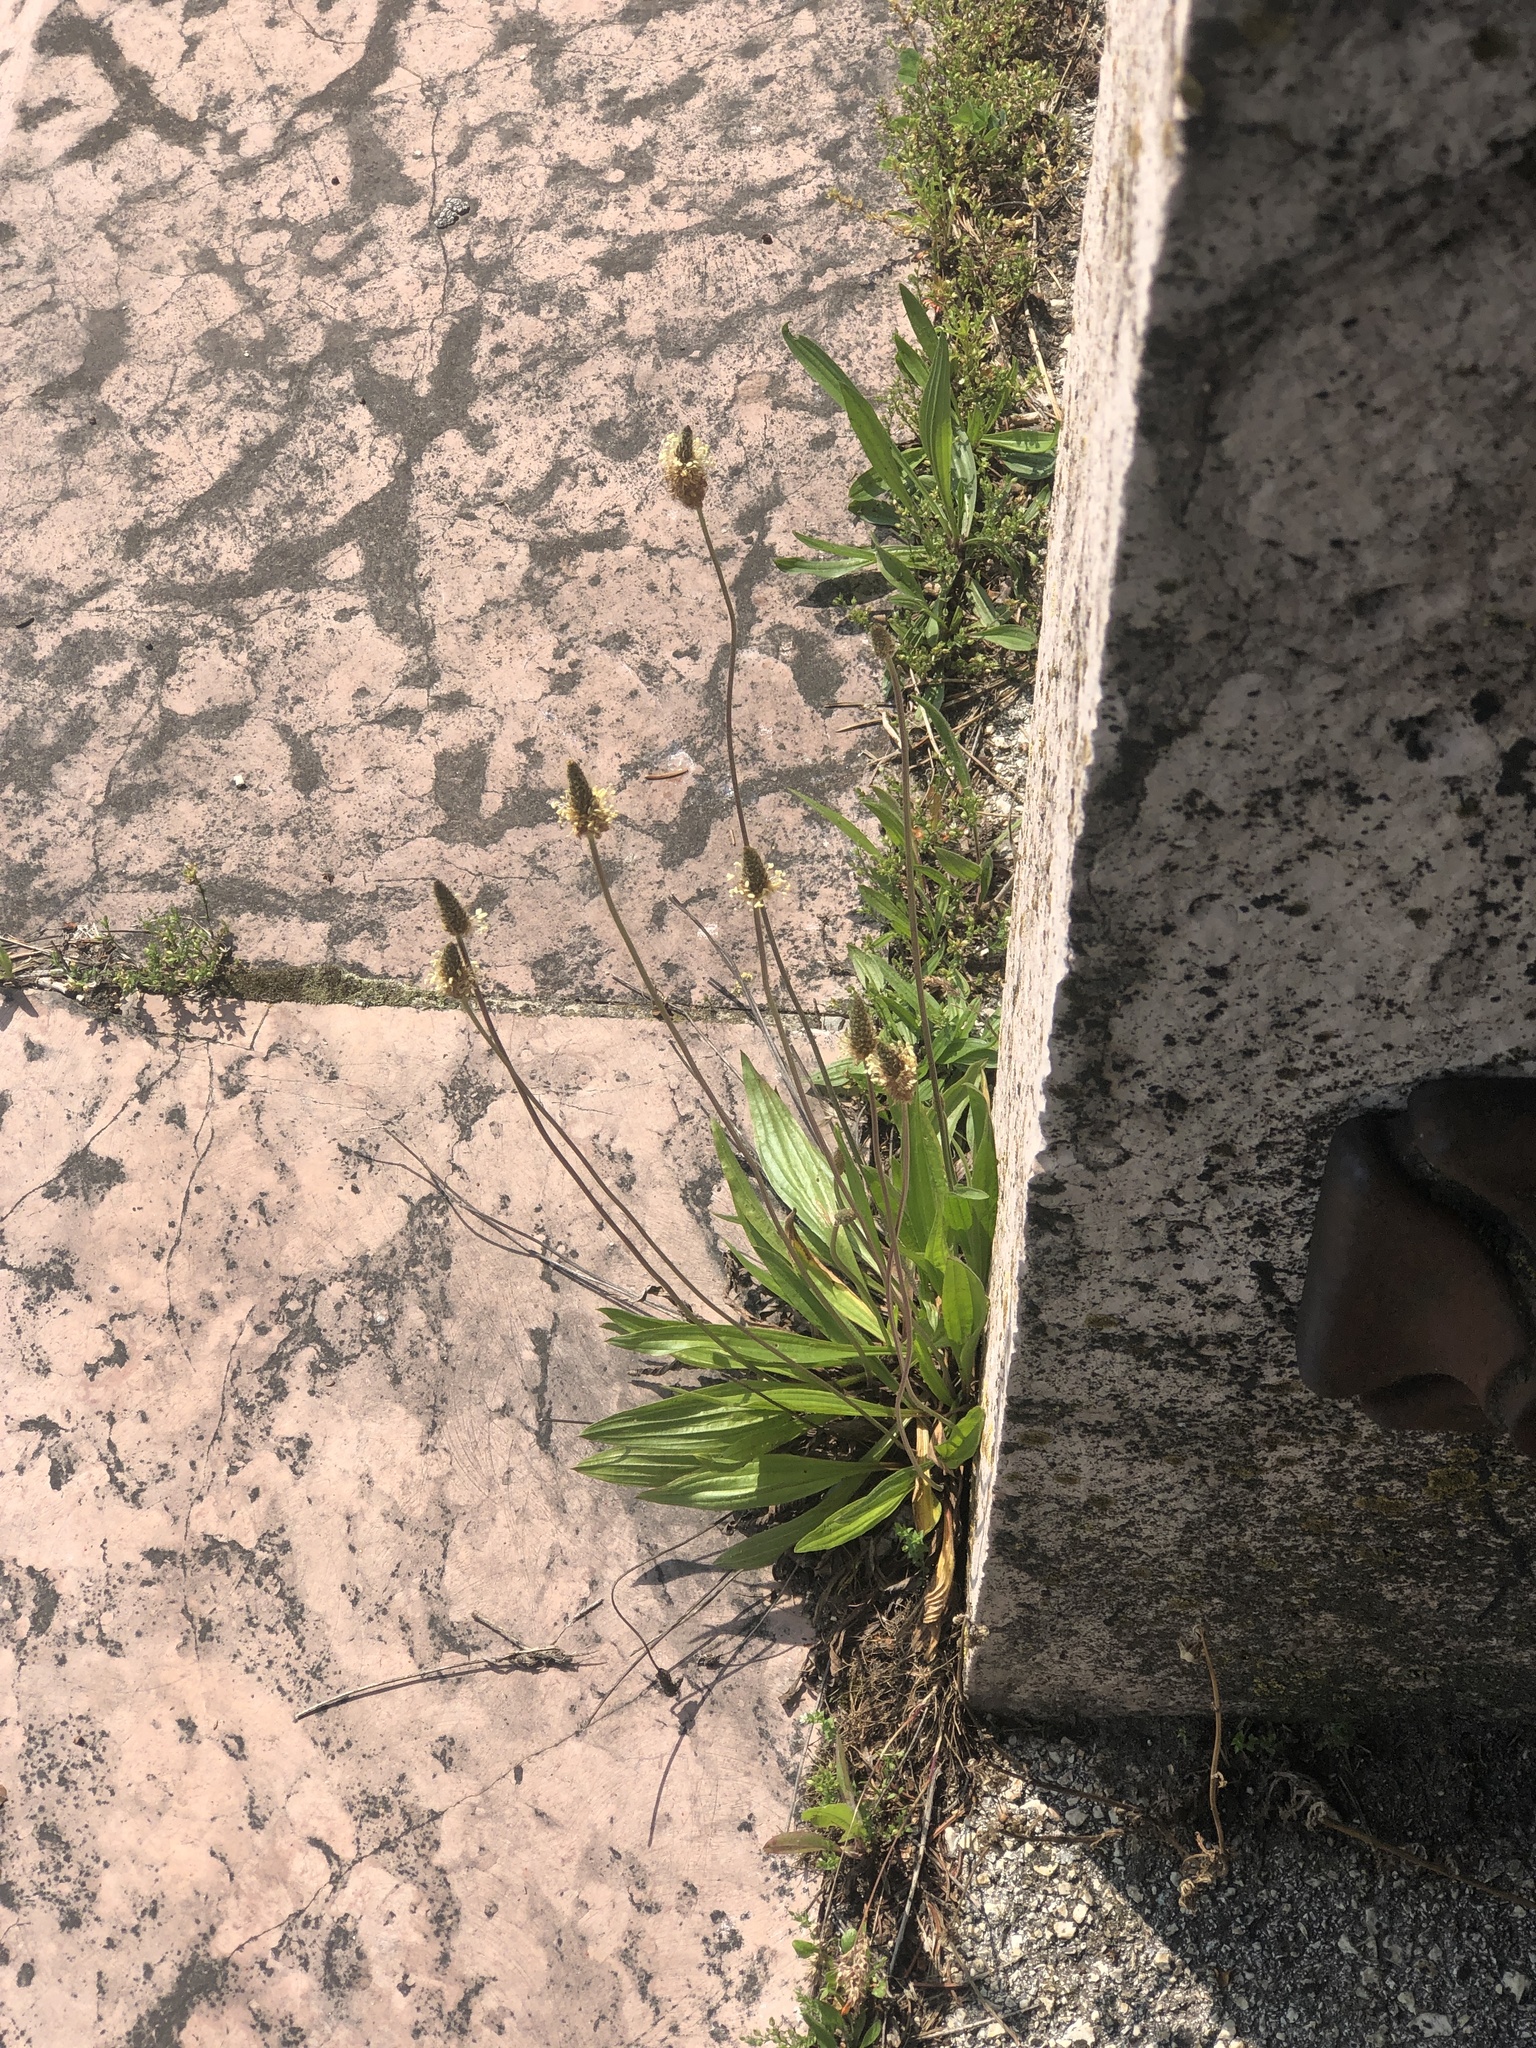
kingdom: Plantae
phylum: Tracheophyta
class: Magnoliopsida
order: Lamiales
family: Plantaginaceae
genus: Plantago
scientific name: Plantago lanceolata
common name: Ribwort plantain
